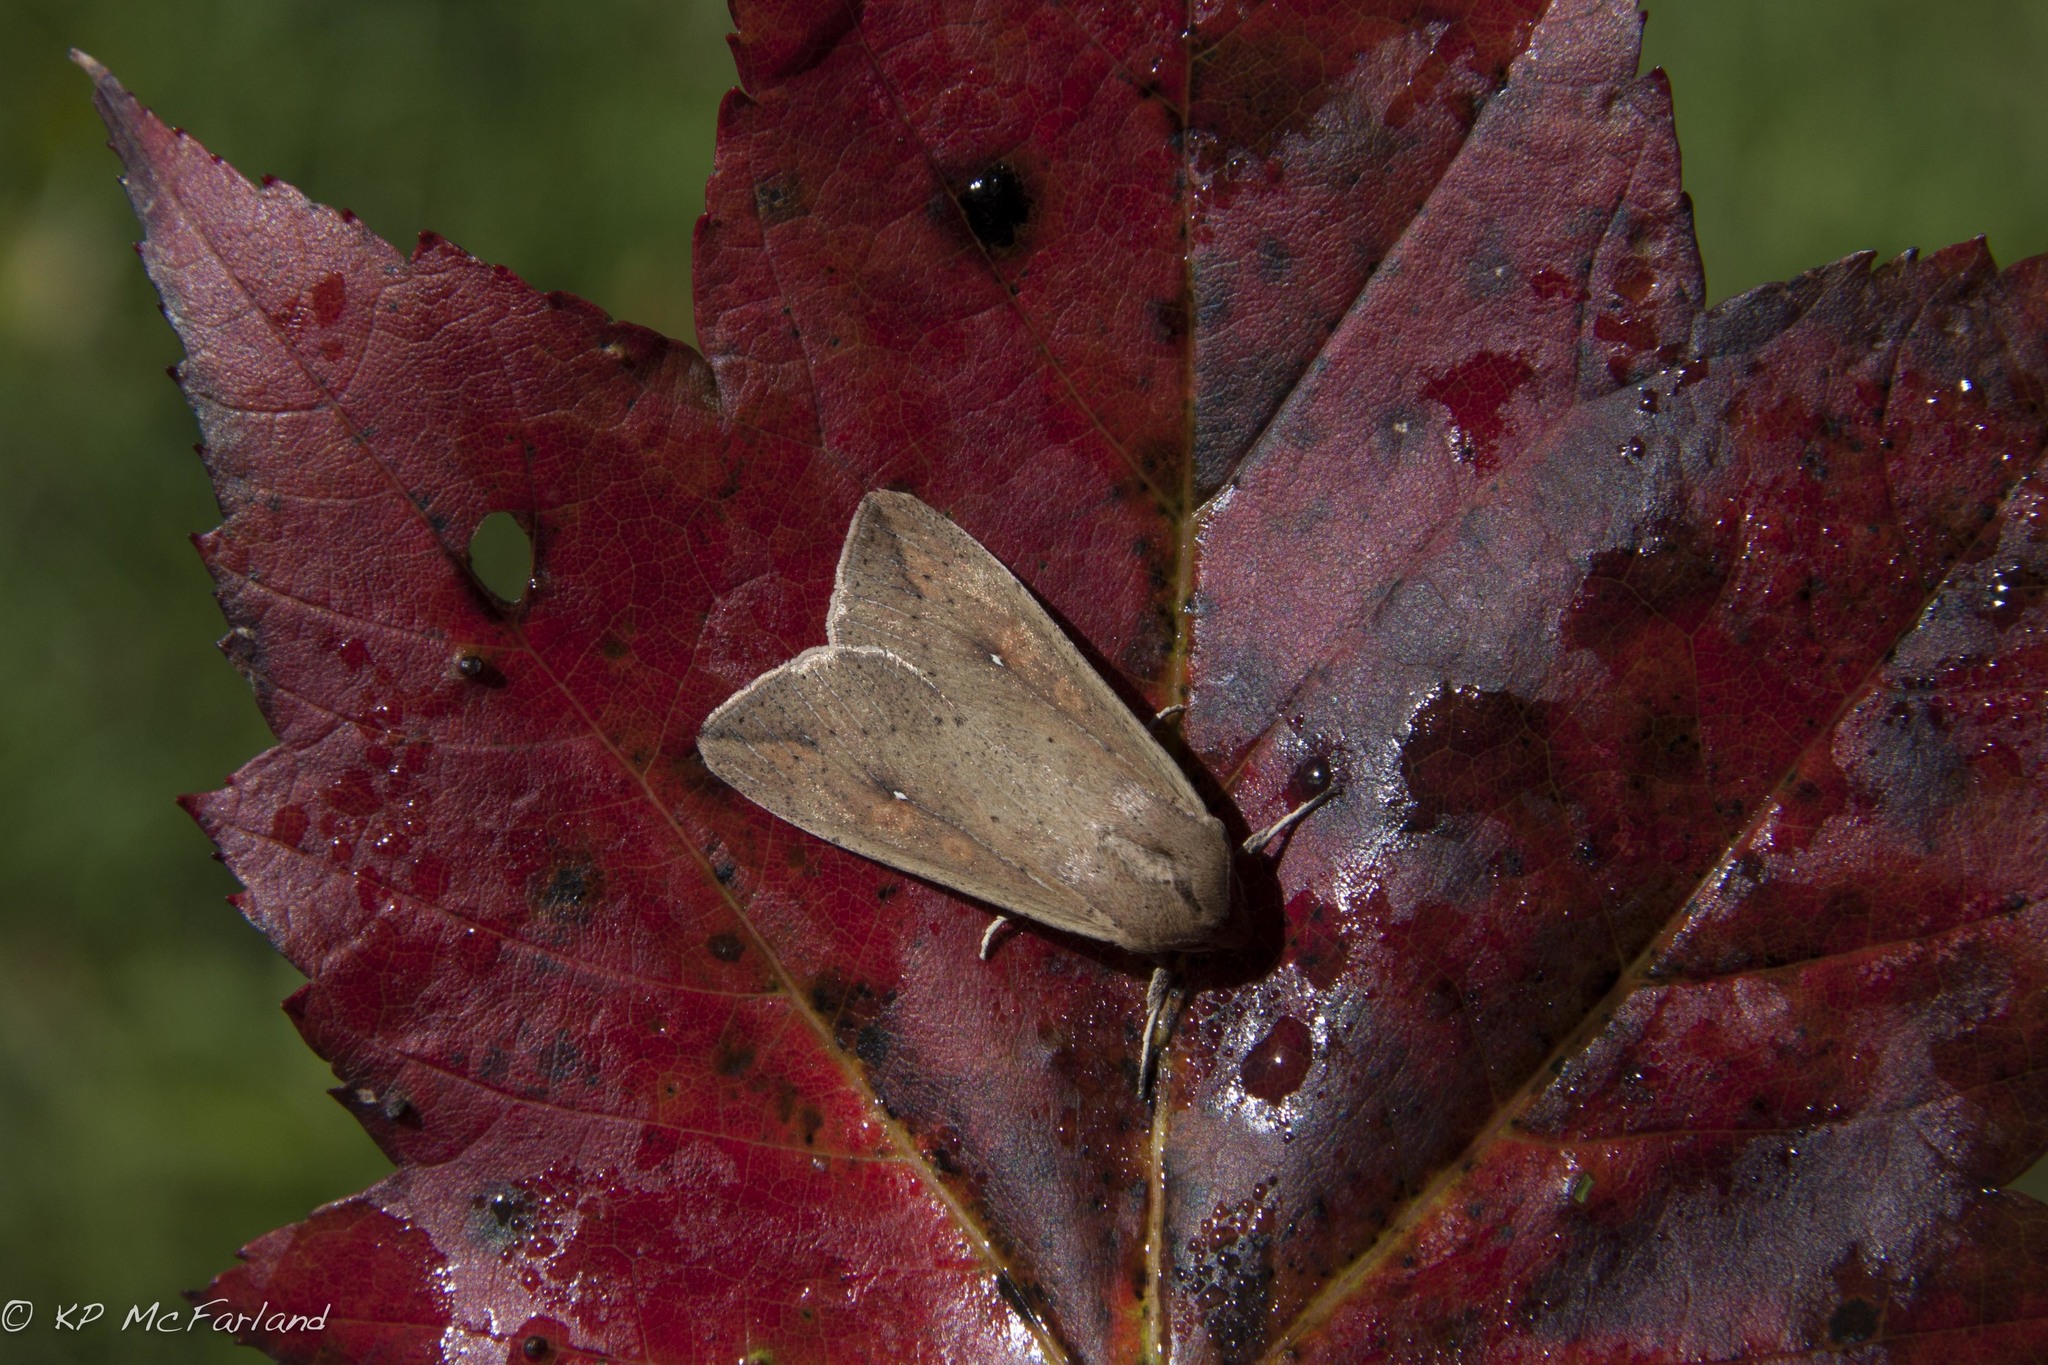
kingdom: Animalia
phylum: Arthropoda
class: Insecta
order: Lepidoptera
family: Noctuidae
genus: Mythimna
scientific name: Mythimna unipuncta
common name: White-speck
